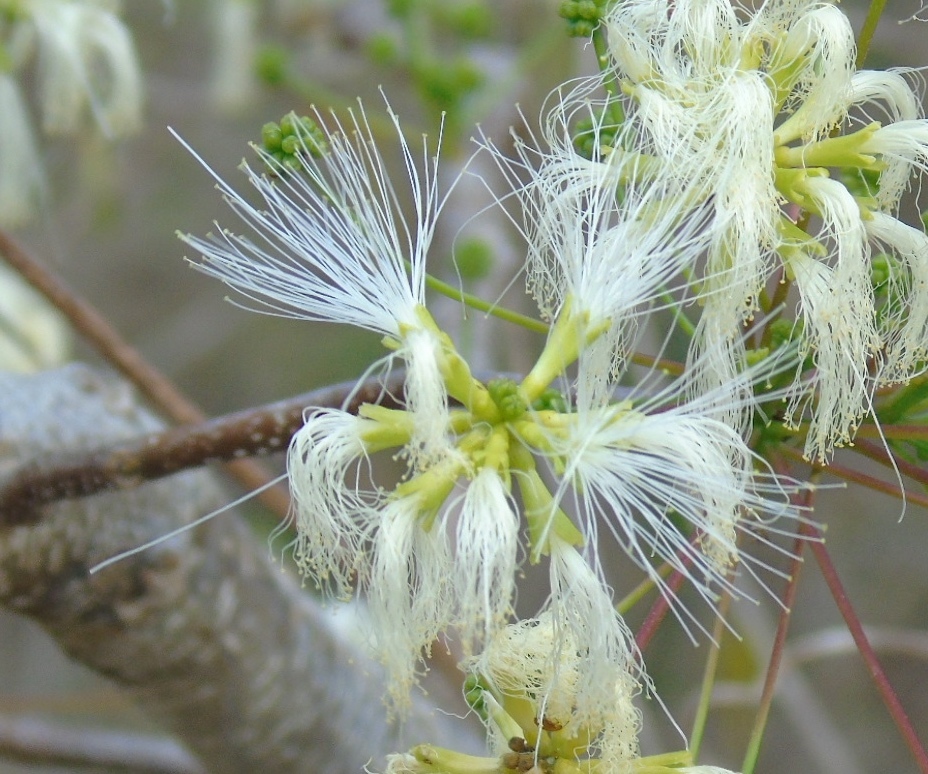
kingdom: Plantae
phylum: Tracheophyta
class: Magnoliopsida
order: Fabales
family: Fabaceae
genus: Albizia
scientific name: Albizia occidentalis
